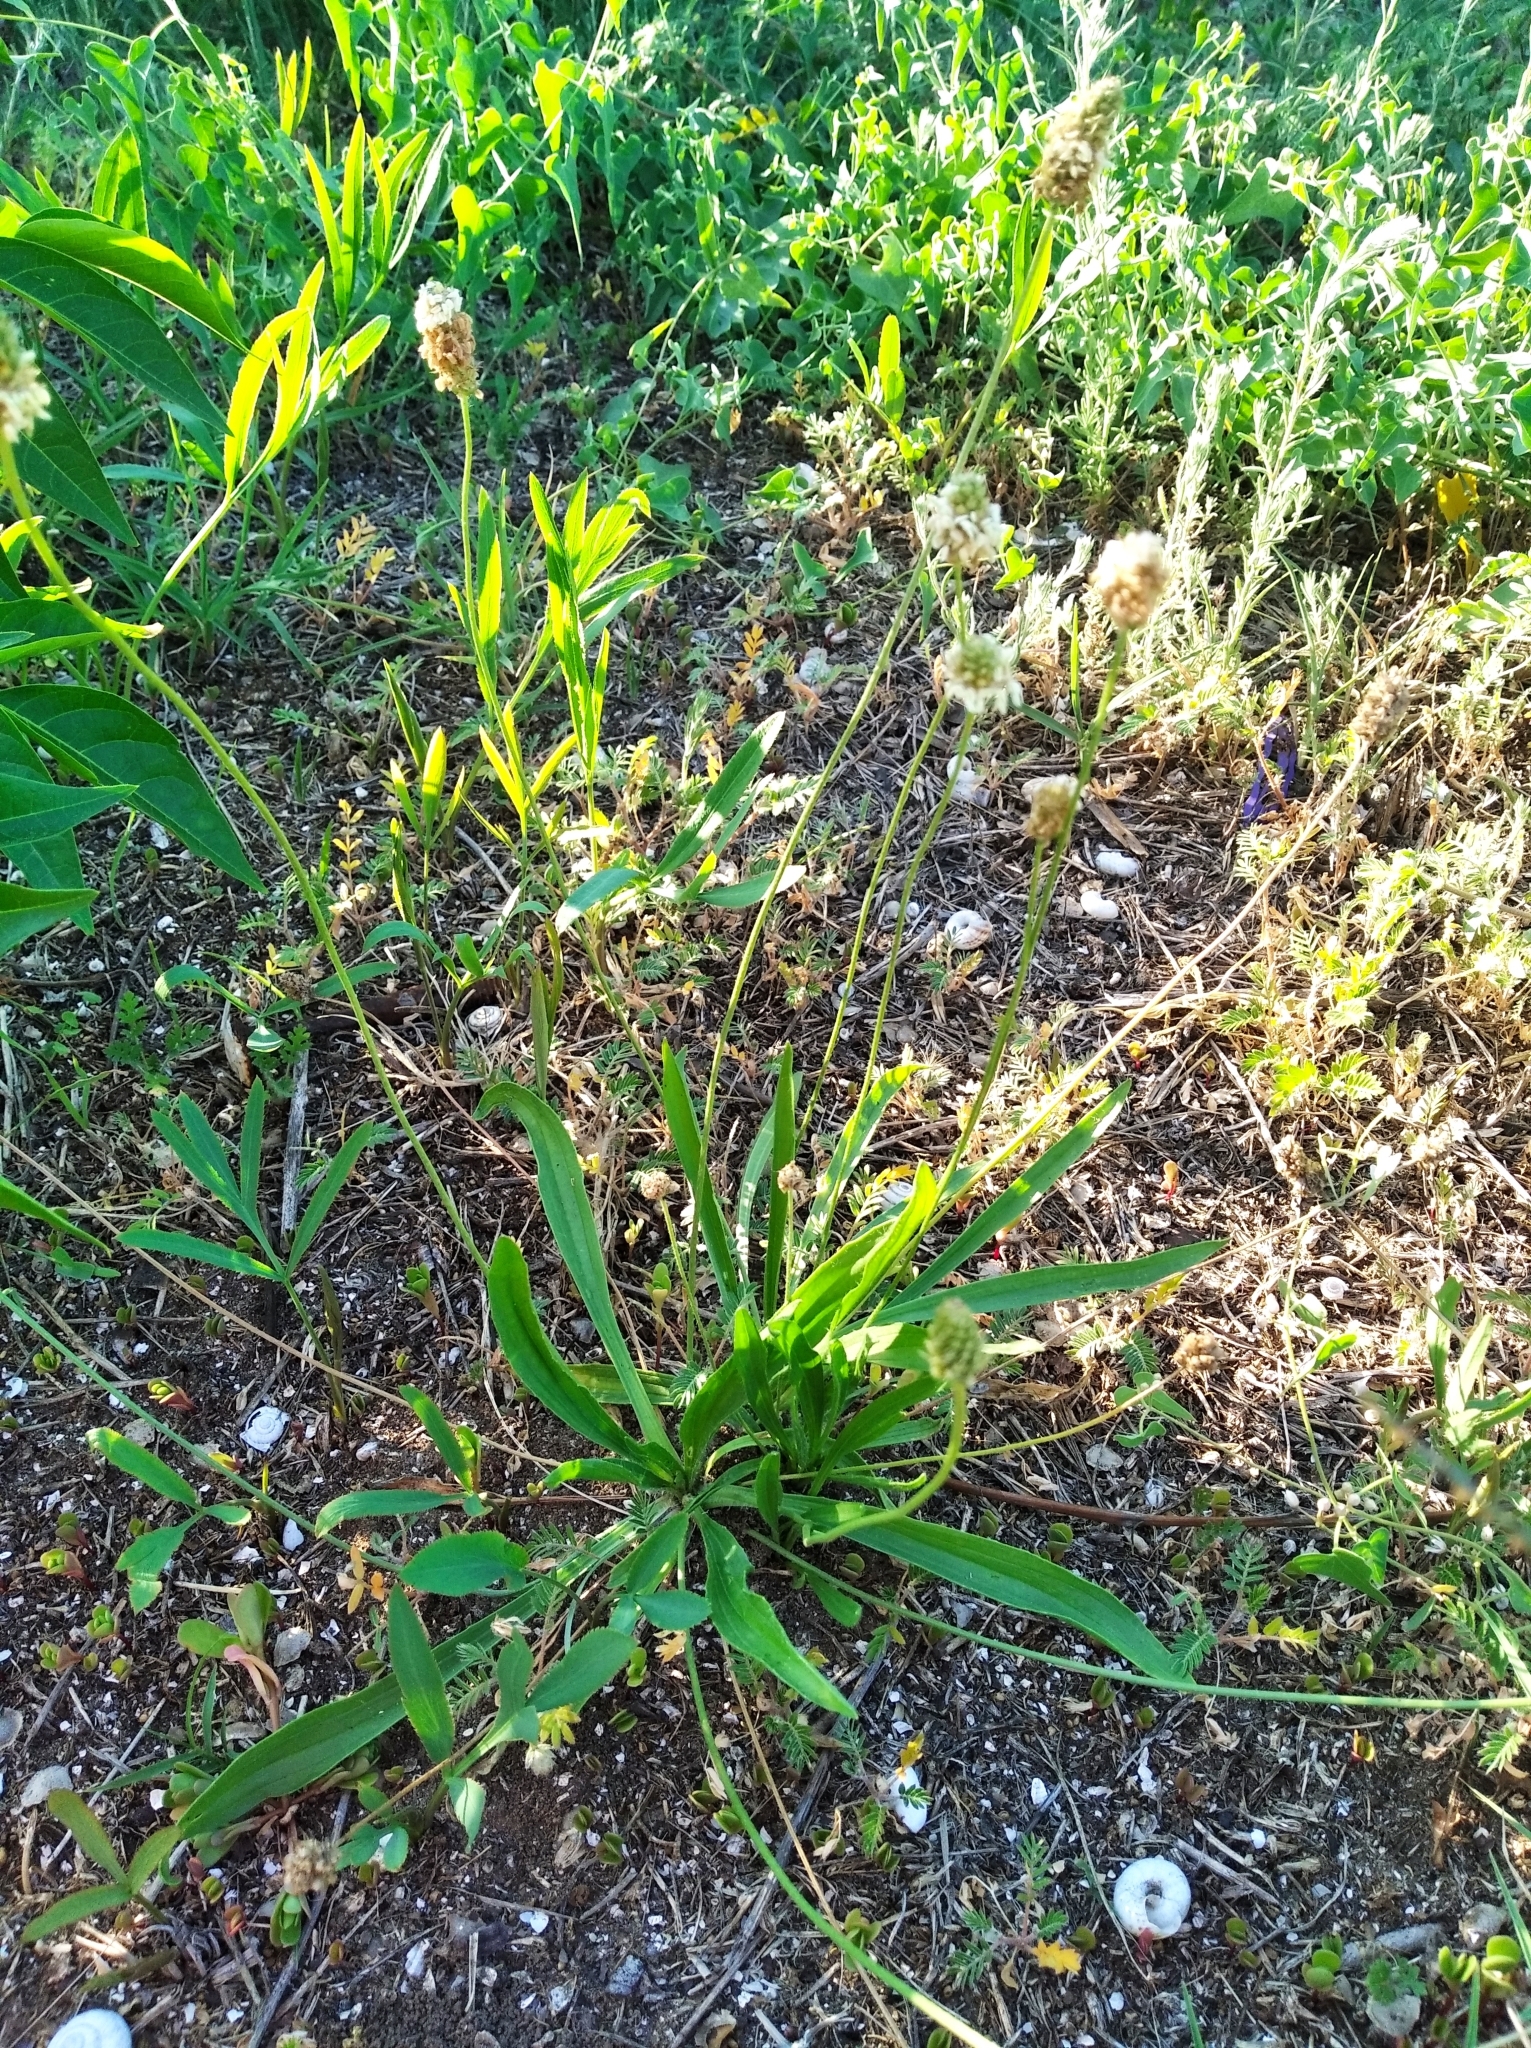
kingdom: Plantae
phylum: Tracheophyta
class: Magnoliopsida
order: Lamiales
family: Plantaginaceae
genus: Plantago
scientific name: Plantago lanceolata
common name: Ribwort plantain
